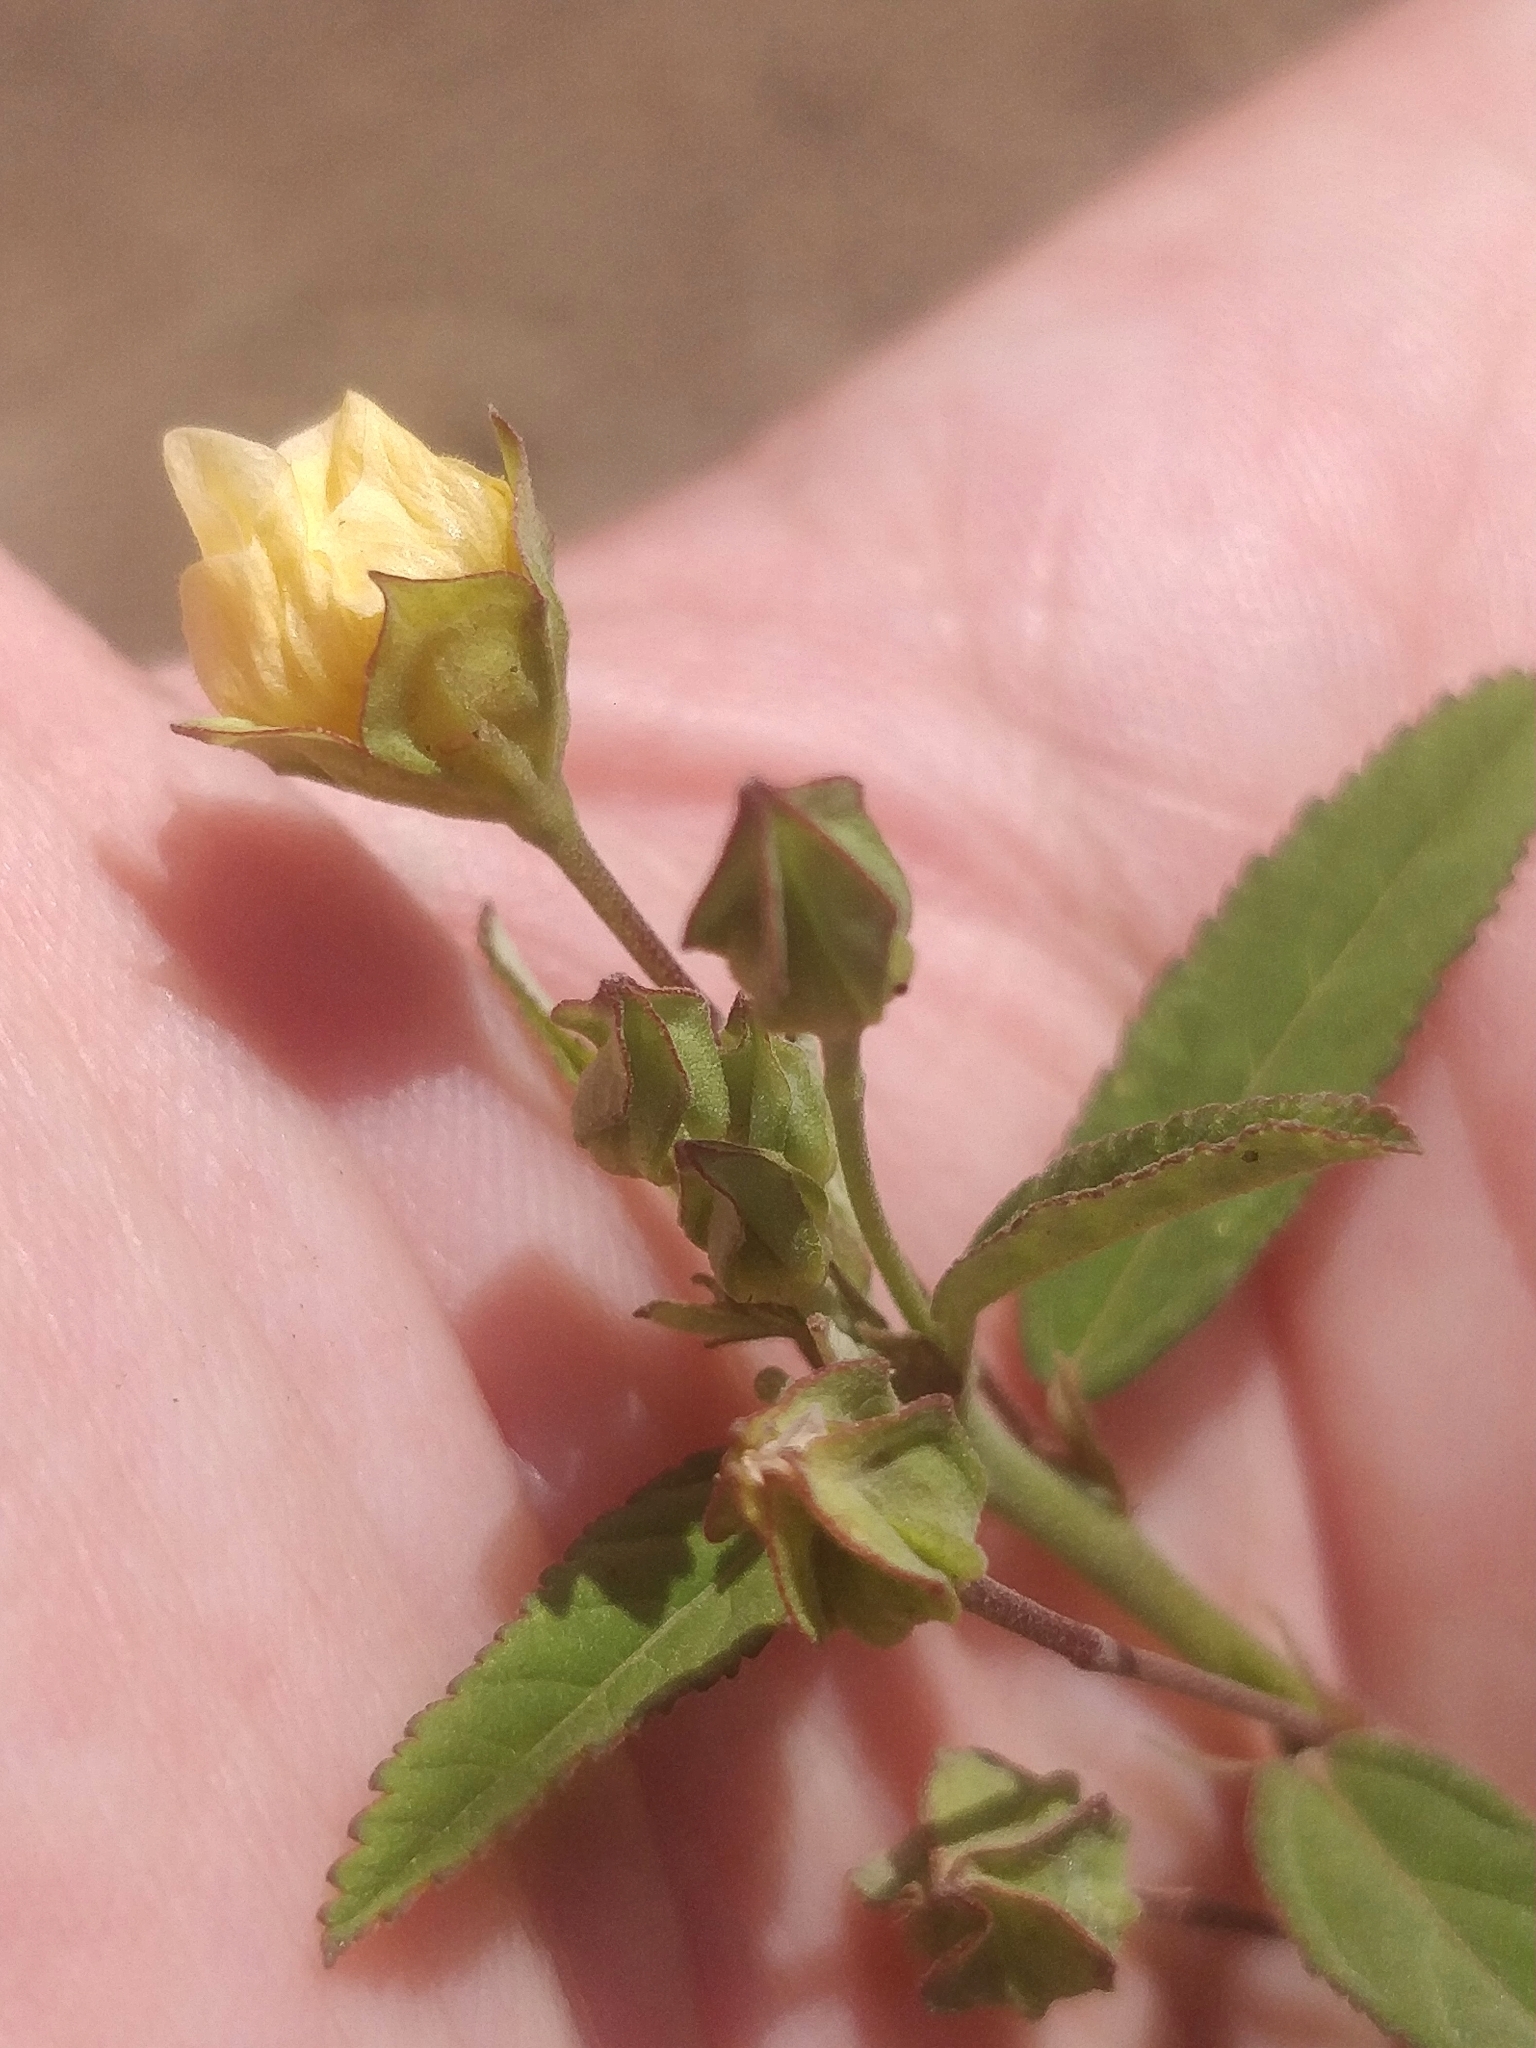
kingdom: Plantae
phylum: Tracheophyta
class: Magnoliopsida
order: Malvales
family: Malvaceae
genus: Sida
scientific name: Sida rhombifolia
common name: Queensland-hemp
